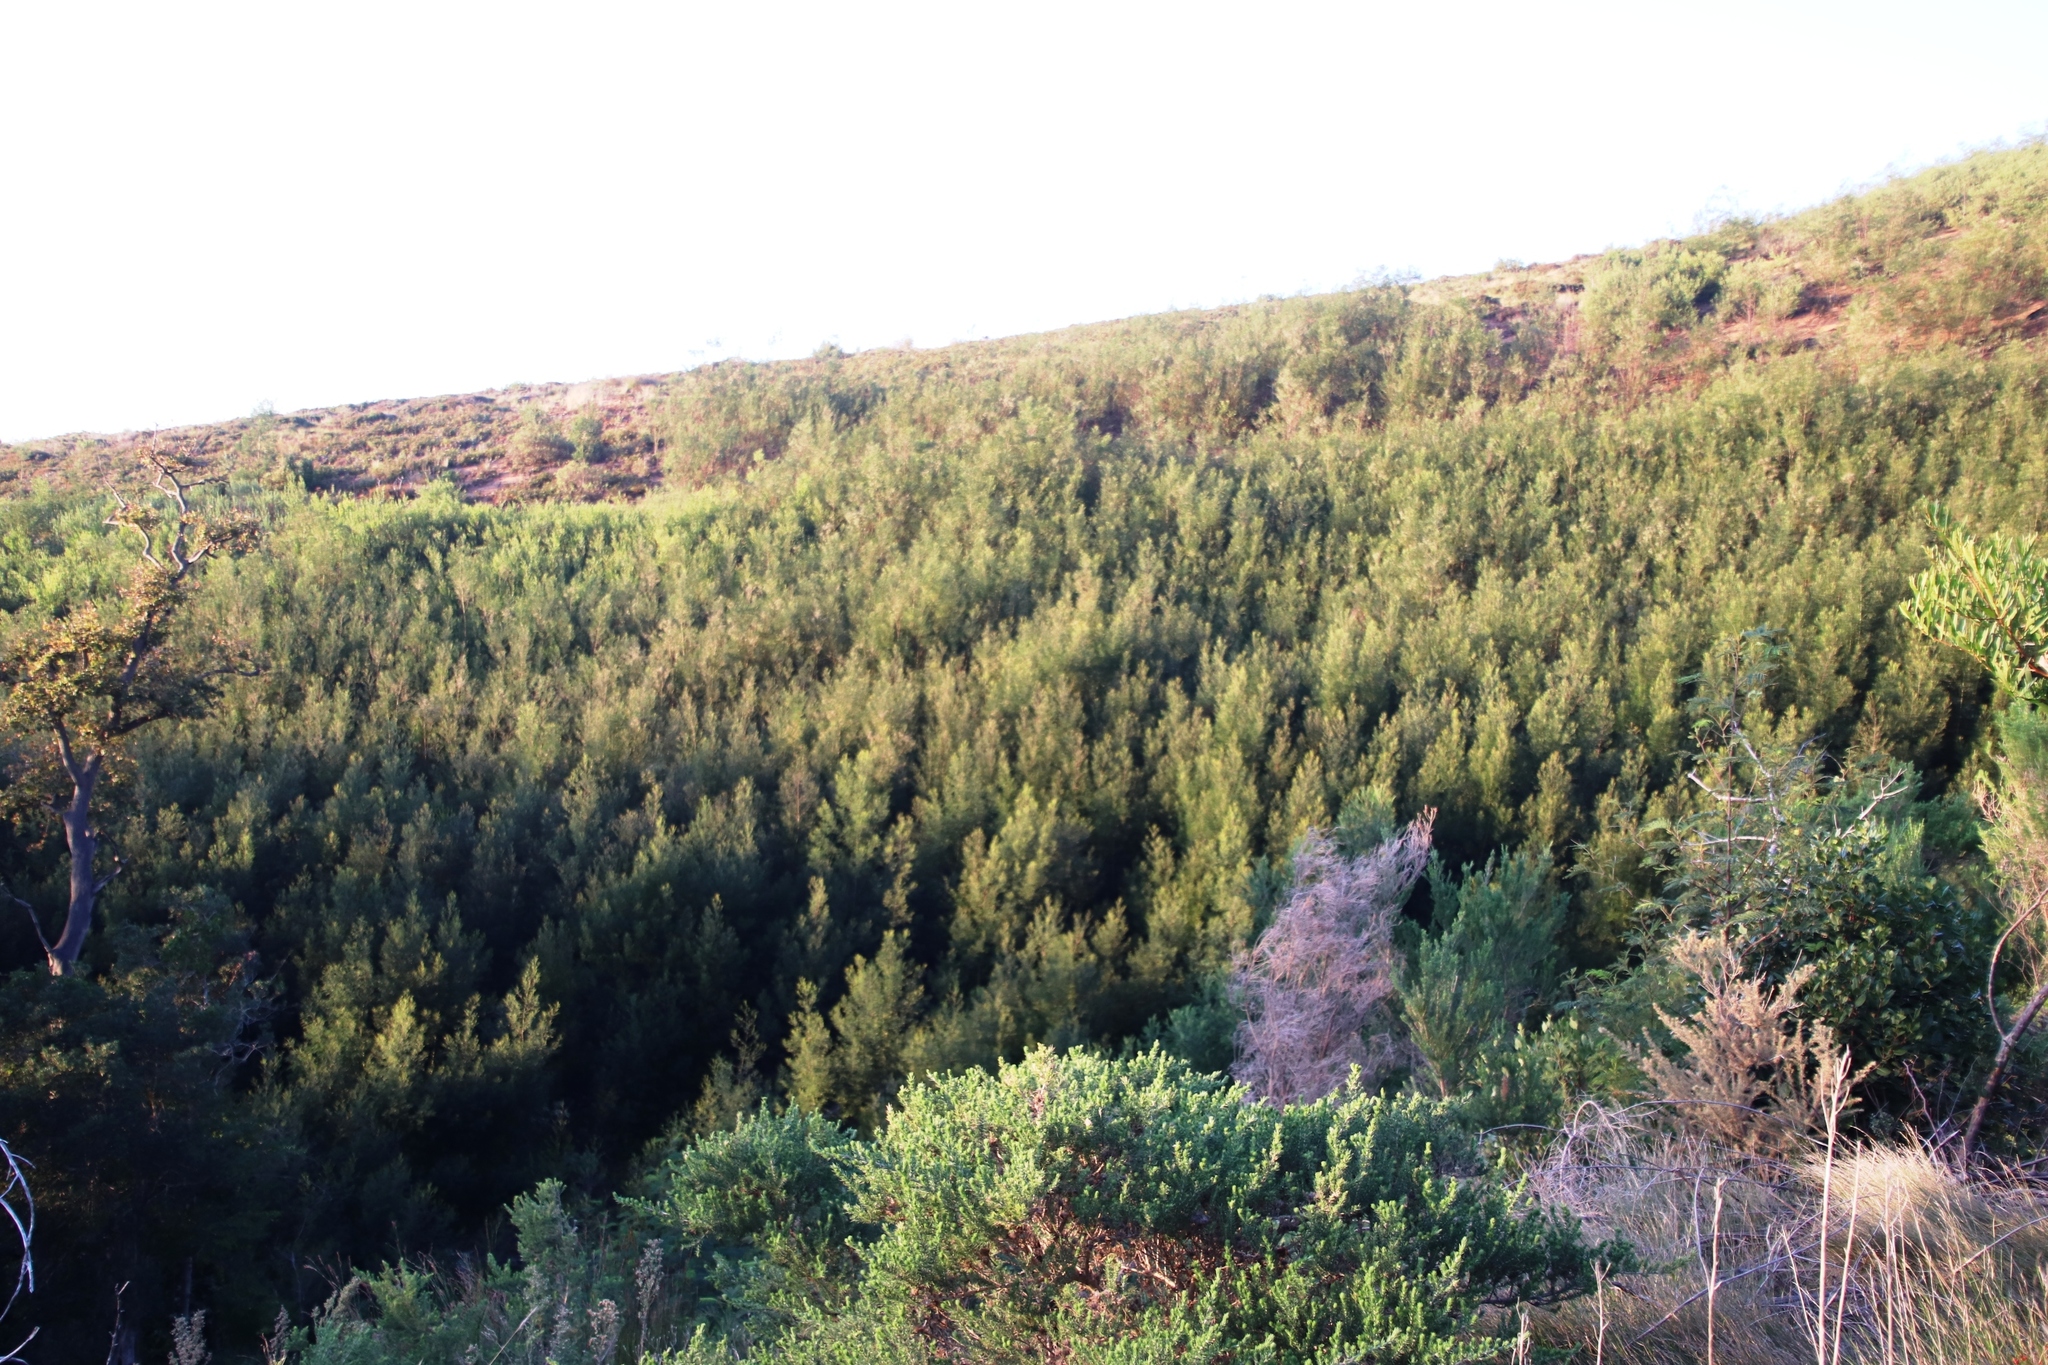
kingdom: Plantae
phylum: Tracheophyta
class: Magnoliopsida
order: Fabales
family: Fabaceae
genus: Acacia
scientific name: Acacia mearnsii
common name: Black wattle
